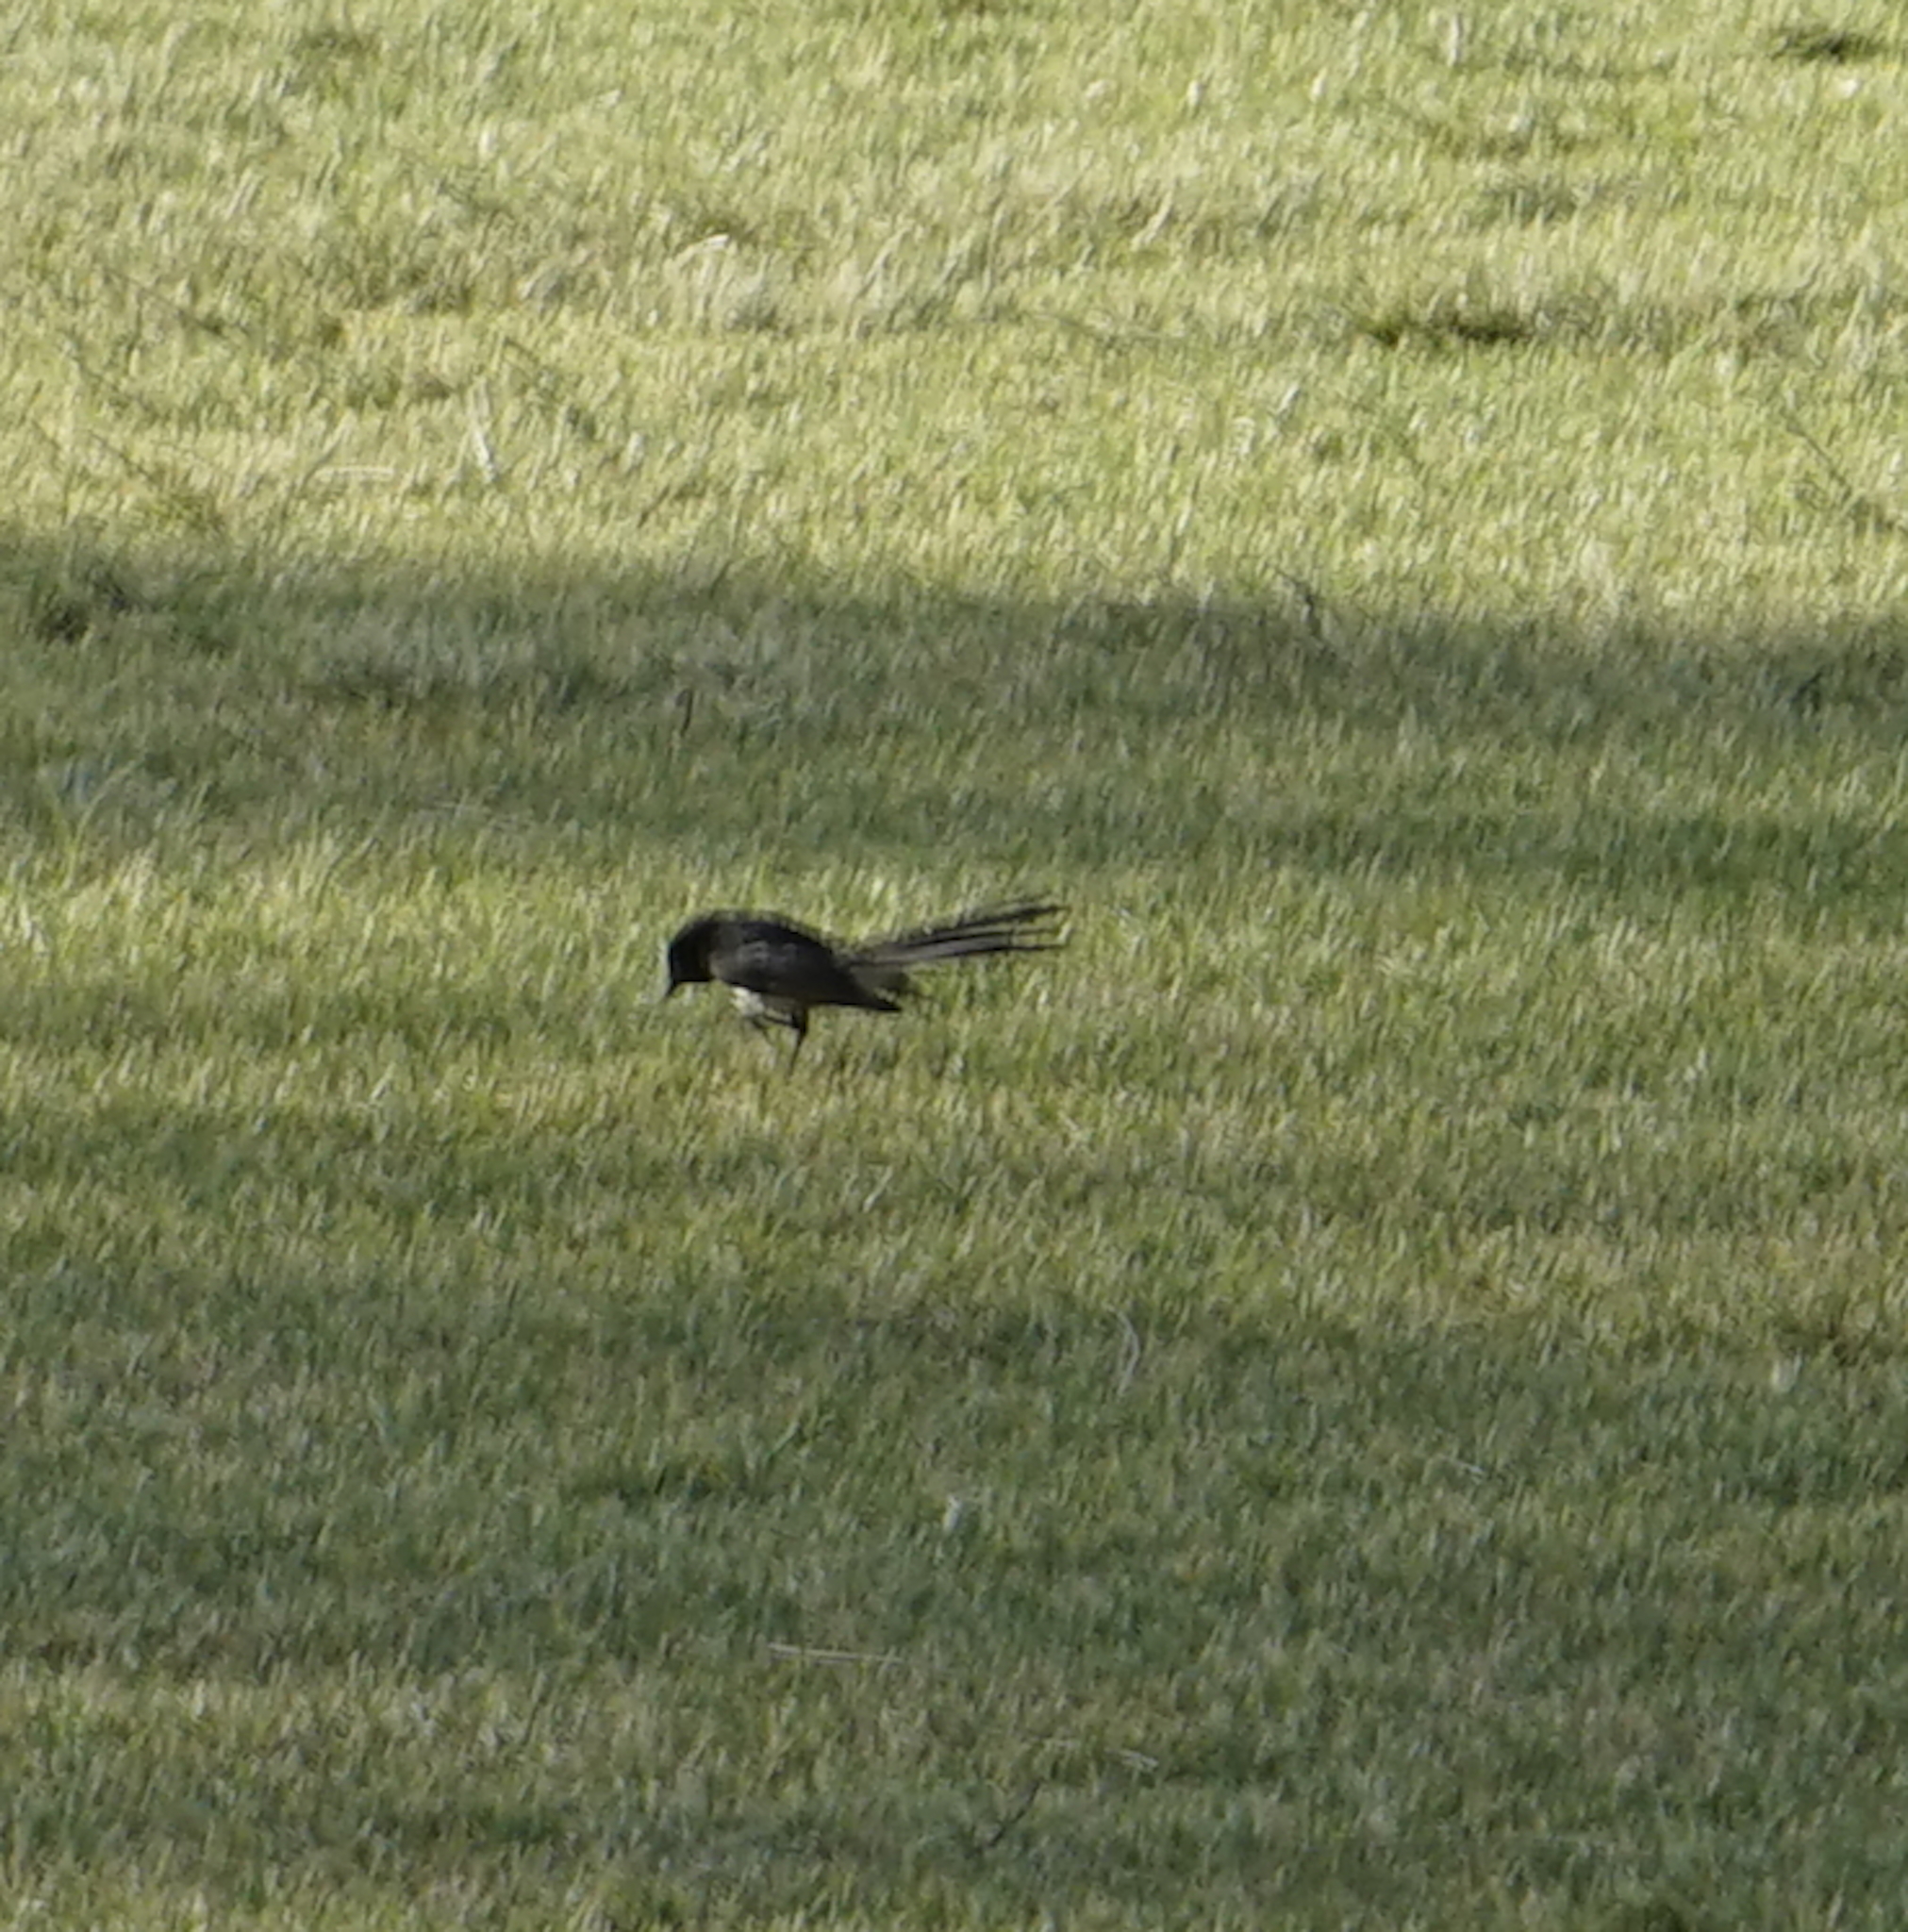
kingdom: Animalia
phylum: Chordata
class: Aves
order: Passeriformes
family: Rhipiduridae
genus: Rhipidura
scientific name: Rhipidura leucophrys
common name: Willie wagtail
